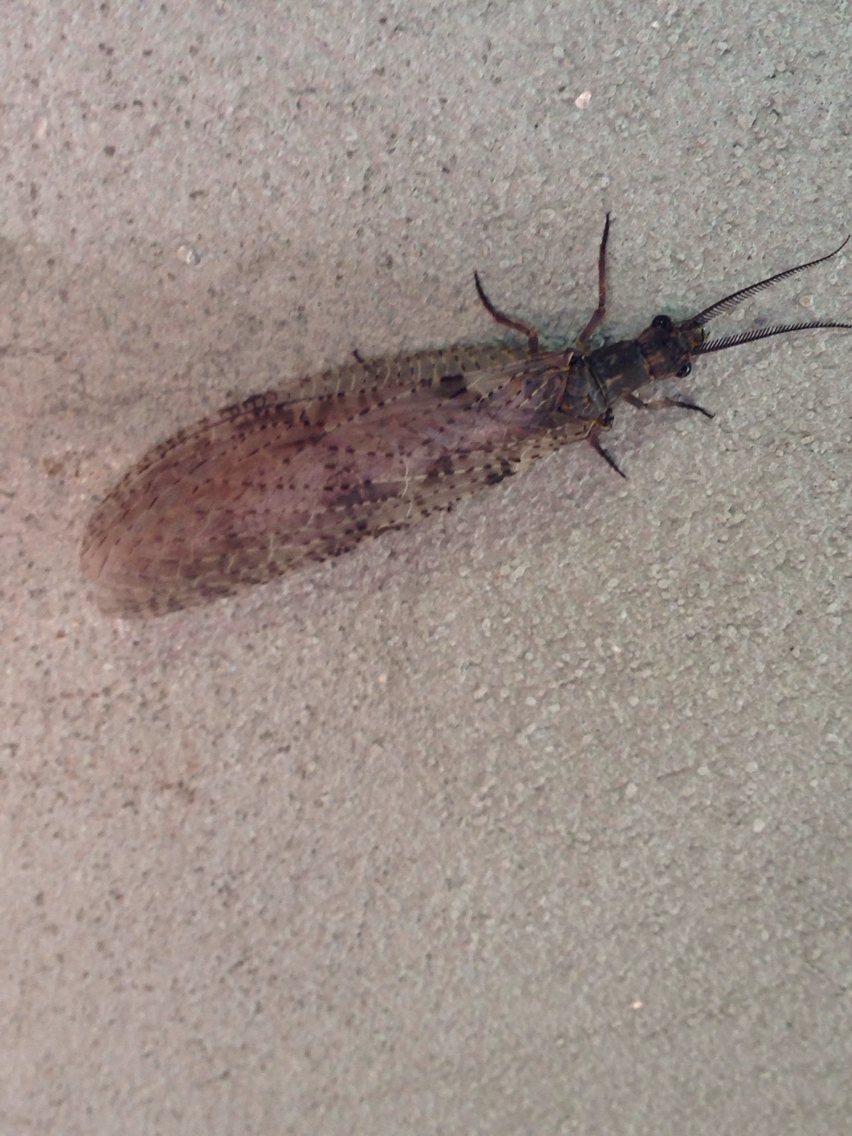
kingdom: Animalia
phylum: Arthropoda
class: Insecta
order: Megaloptera
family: Corydalidae
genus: Chauliodes
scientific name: Chauliodes pectinicornis
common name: Summer fishfly
